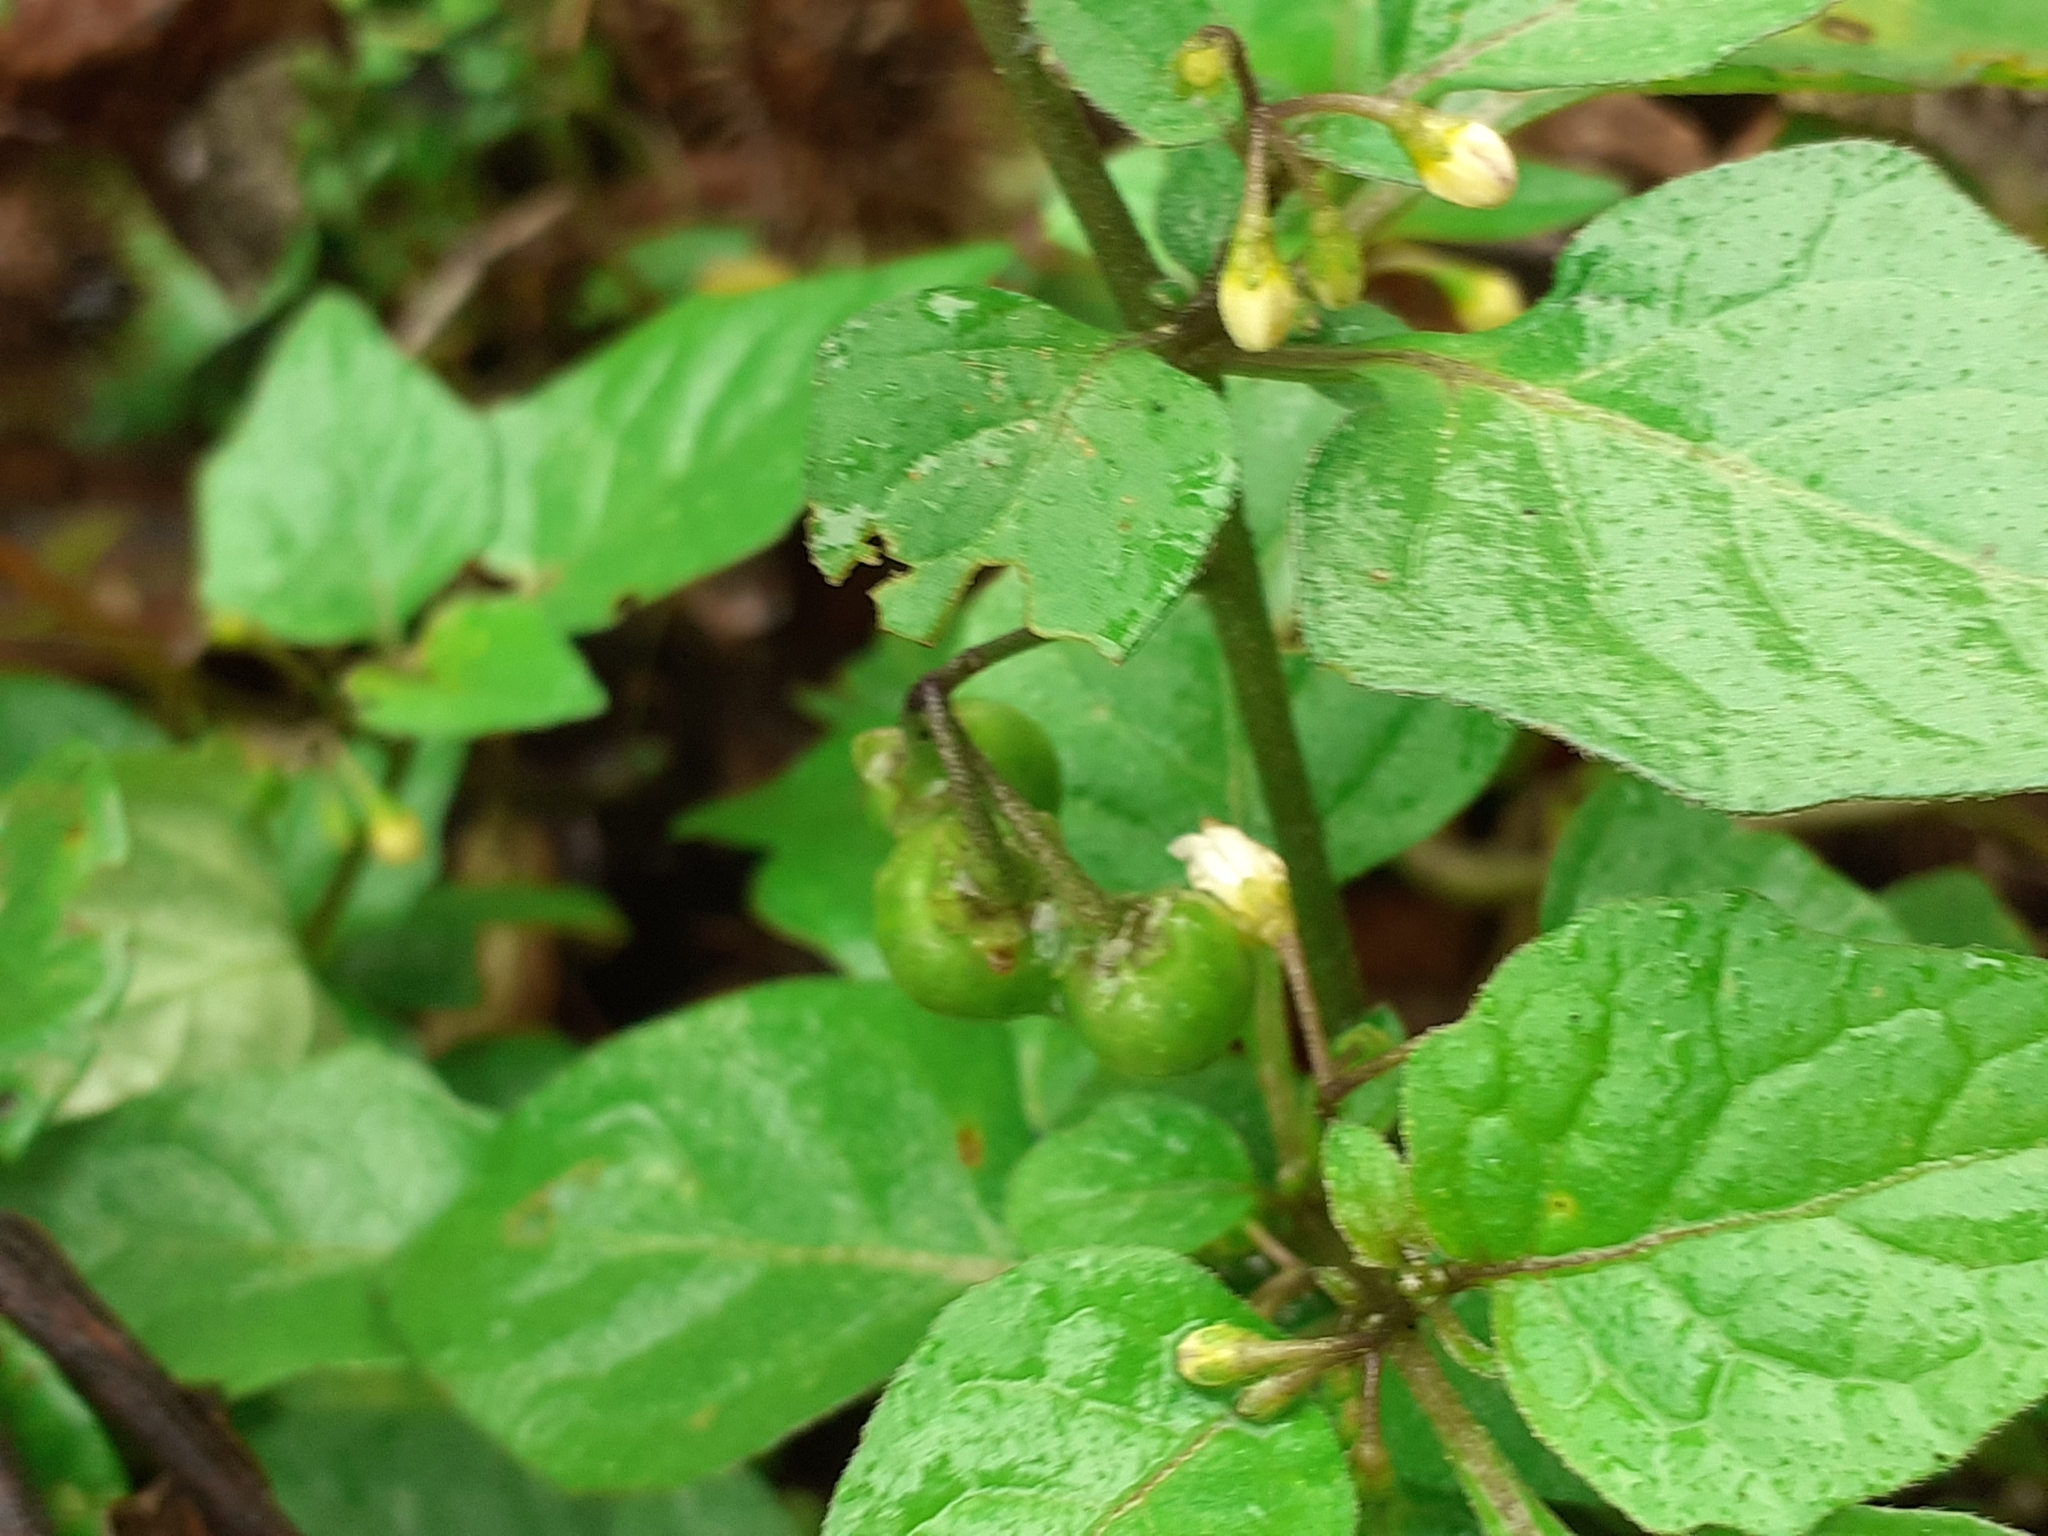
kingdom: Plantae
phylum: Tracheophyta
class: Magnoliopsida
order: Solanales
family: Solanaceae
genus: Solanum
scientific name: Solanum nigrum
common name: Black nightshade
